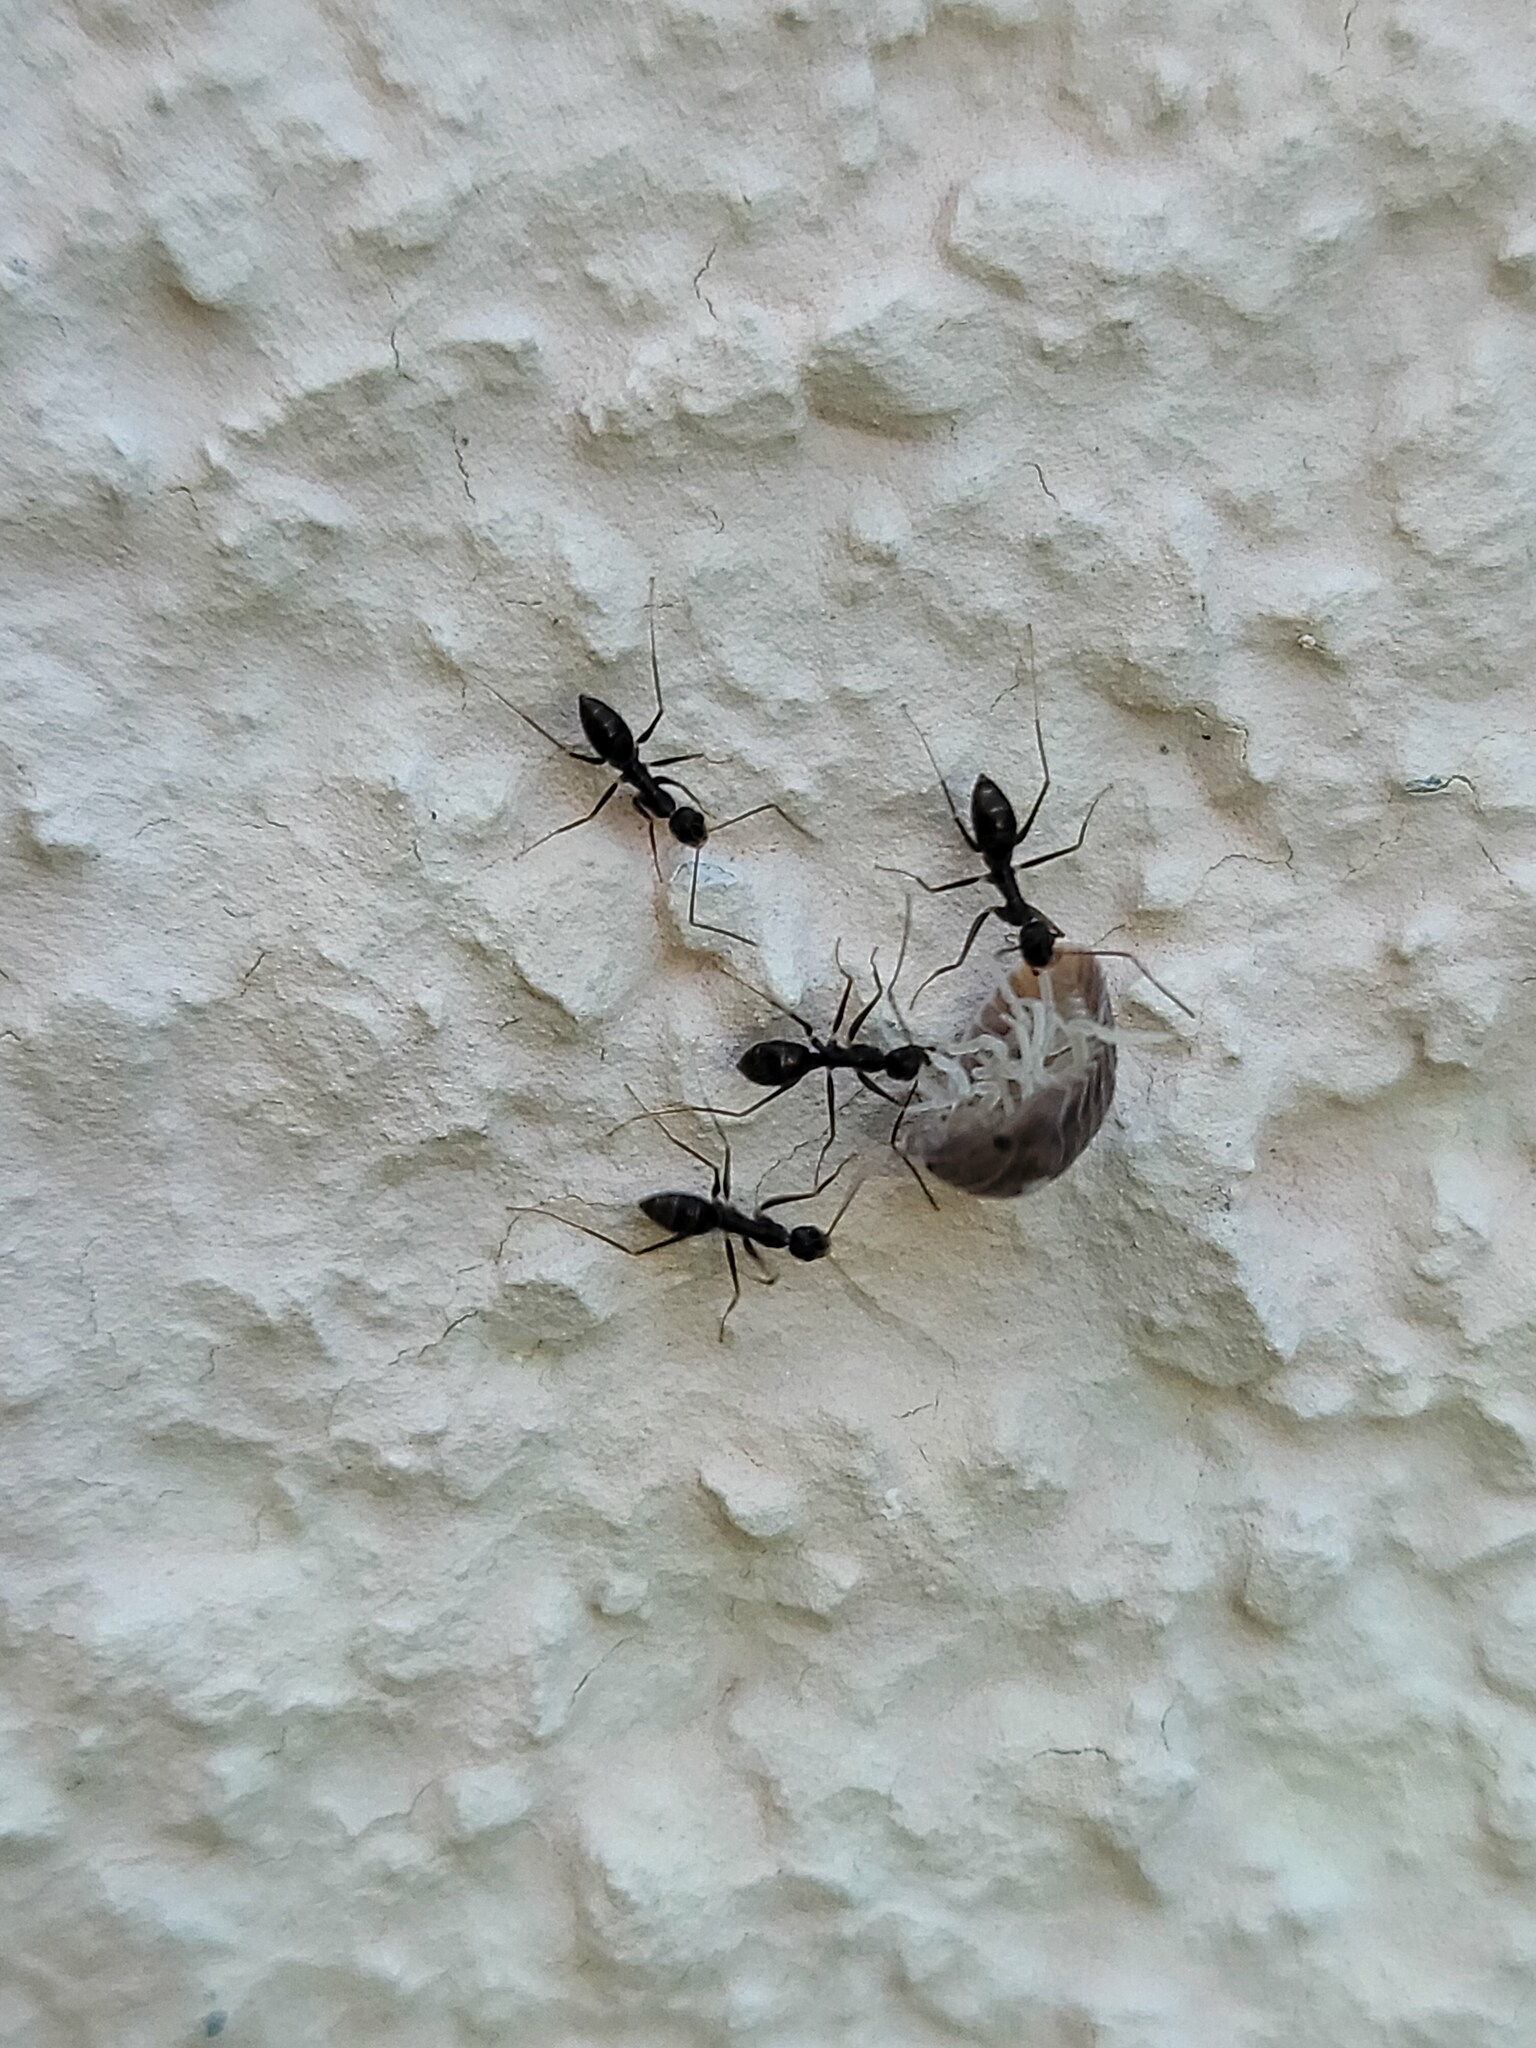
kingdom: Animalia
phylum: Arthropoda
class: Insecta
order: Hymenoptera
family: Formicidae
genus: Paratrechina
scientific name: Paratrechina longicornis
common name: Longhorned crazy ant
